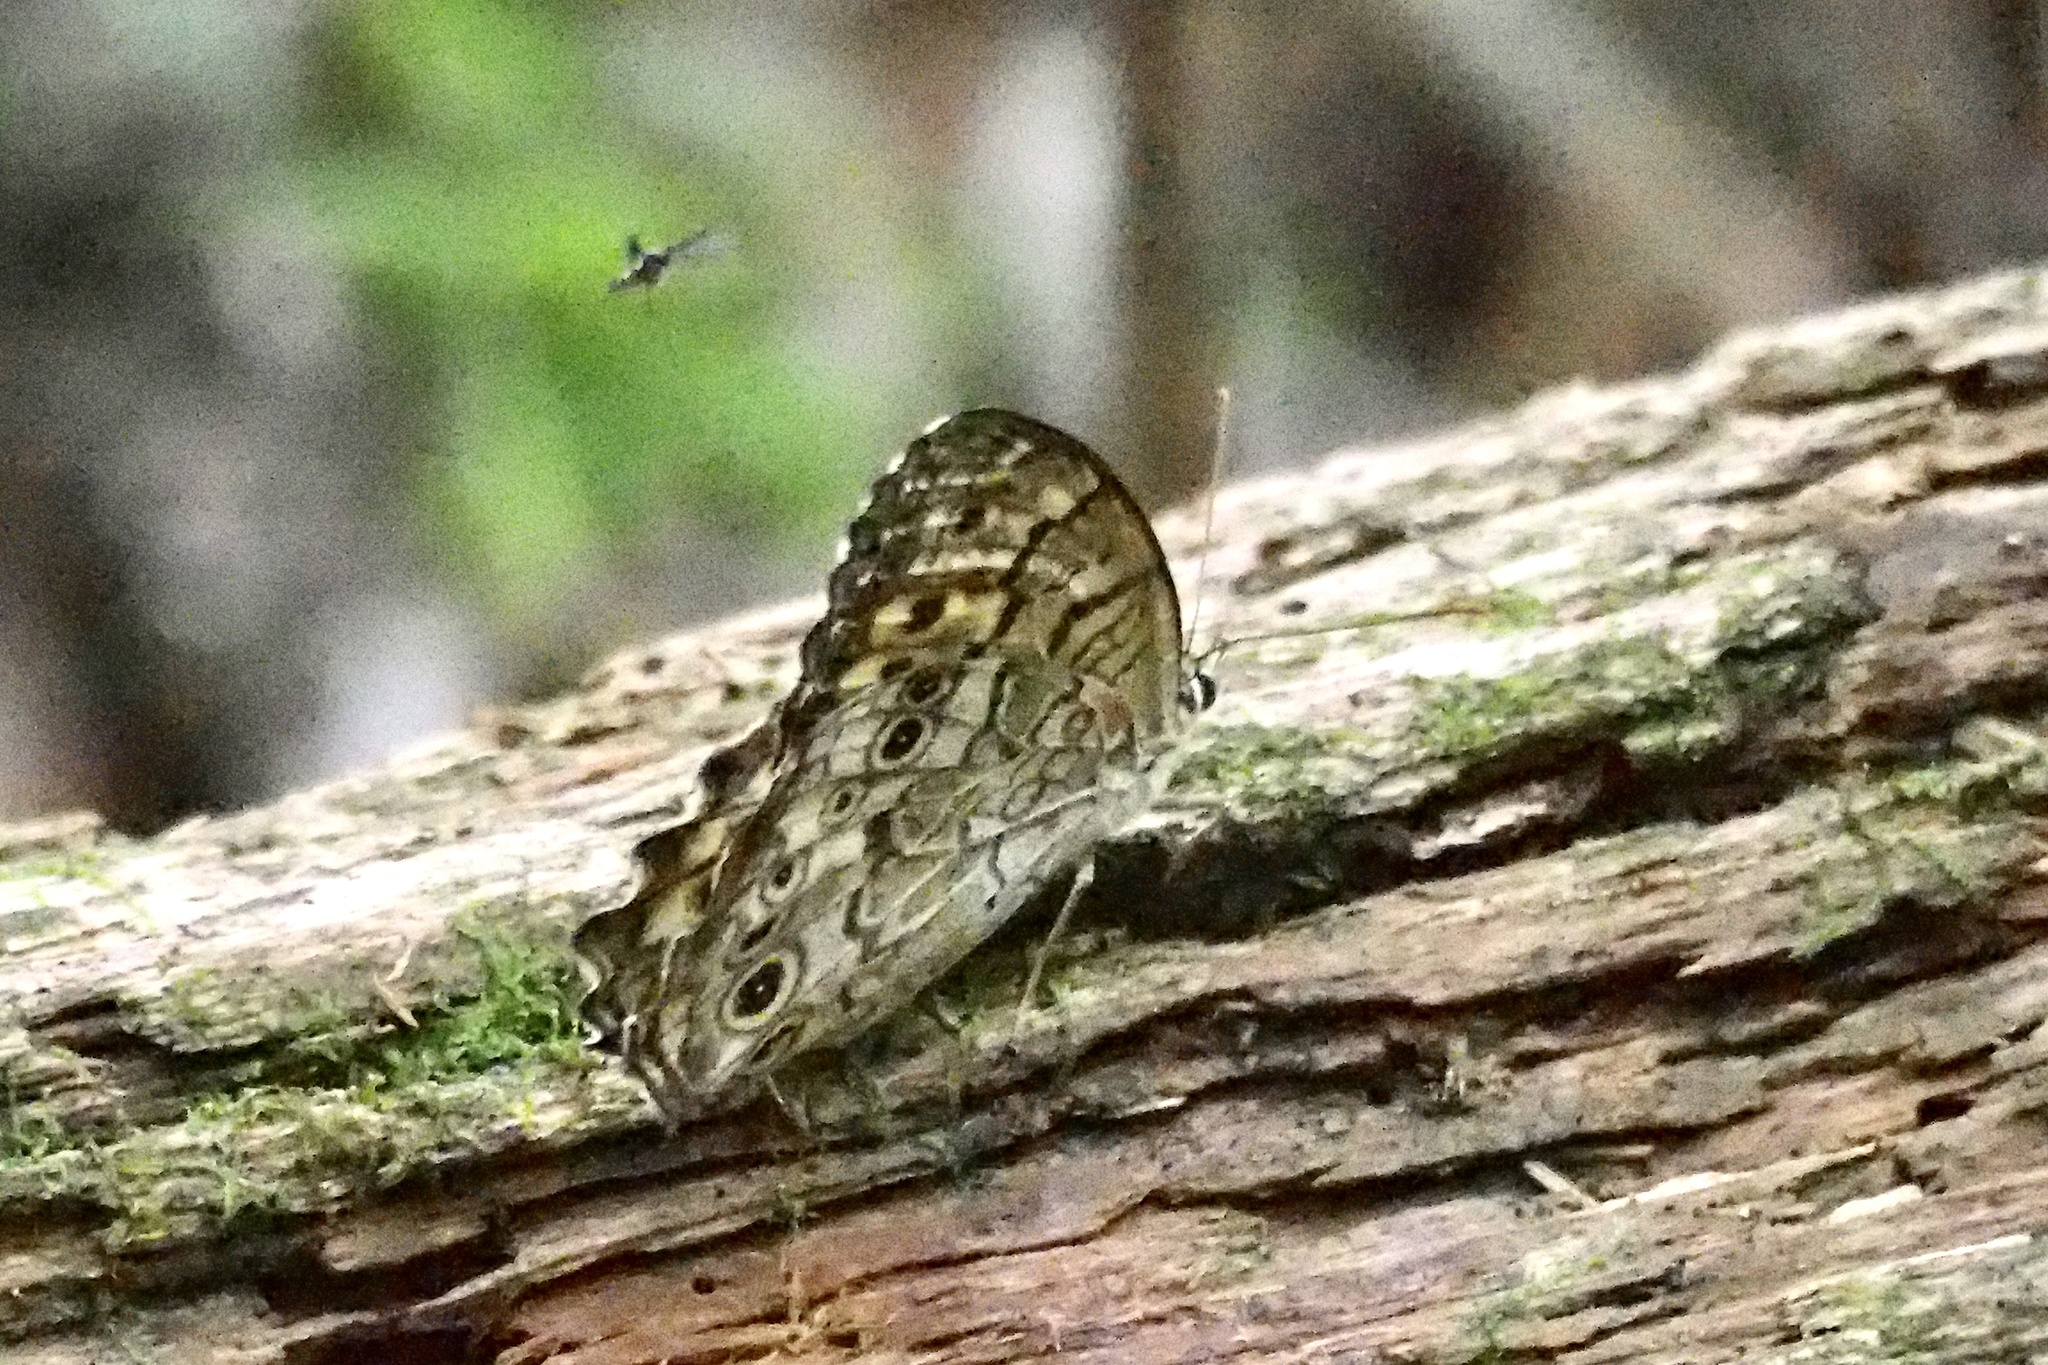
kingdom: Animalia
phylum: Arthropoda
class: Insecta
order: Lepidoptera
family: Nymphalidae
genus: Neope
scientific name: Neope goschkevitschii
